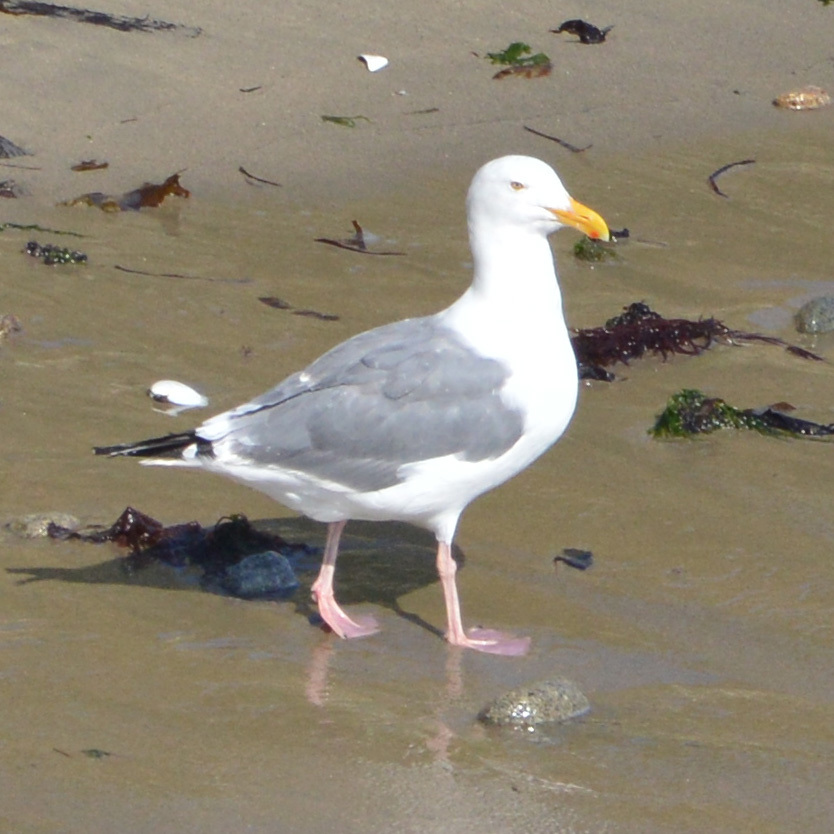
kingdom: Animalia
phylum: Chordata
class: Aves
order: Charadriiformes
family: Laridae
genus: Larus
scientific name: Larus occidentalis
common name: Western gull
